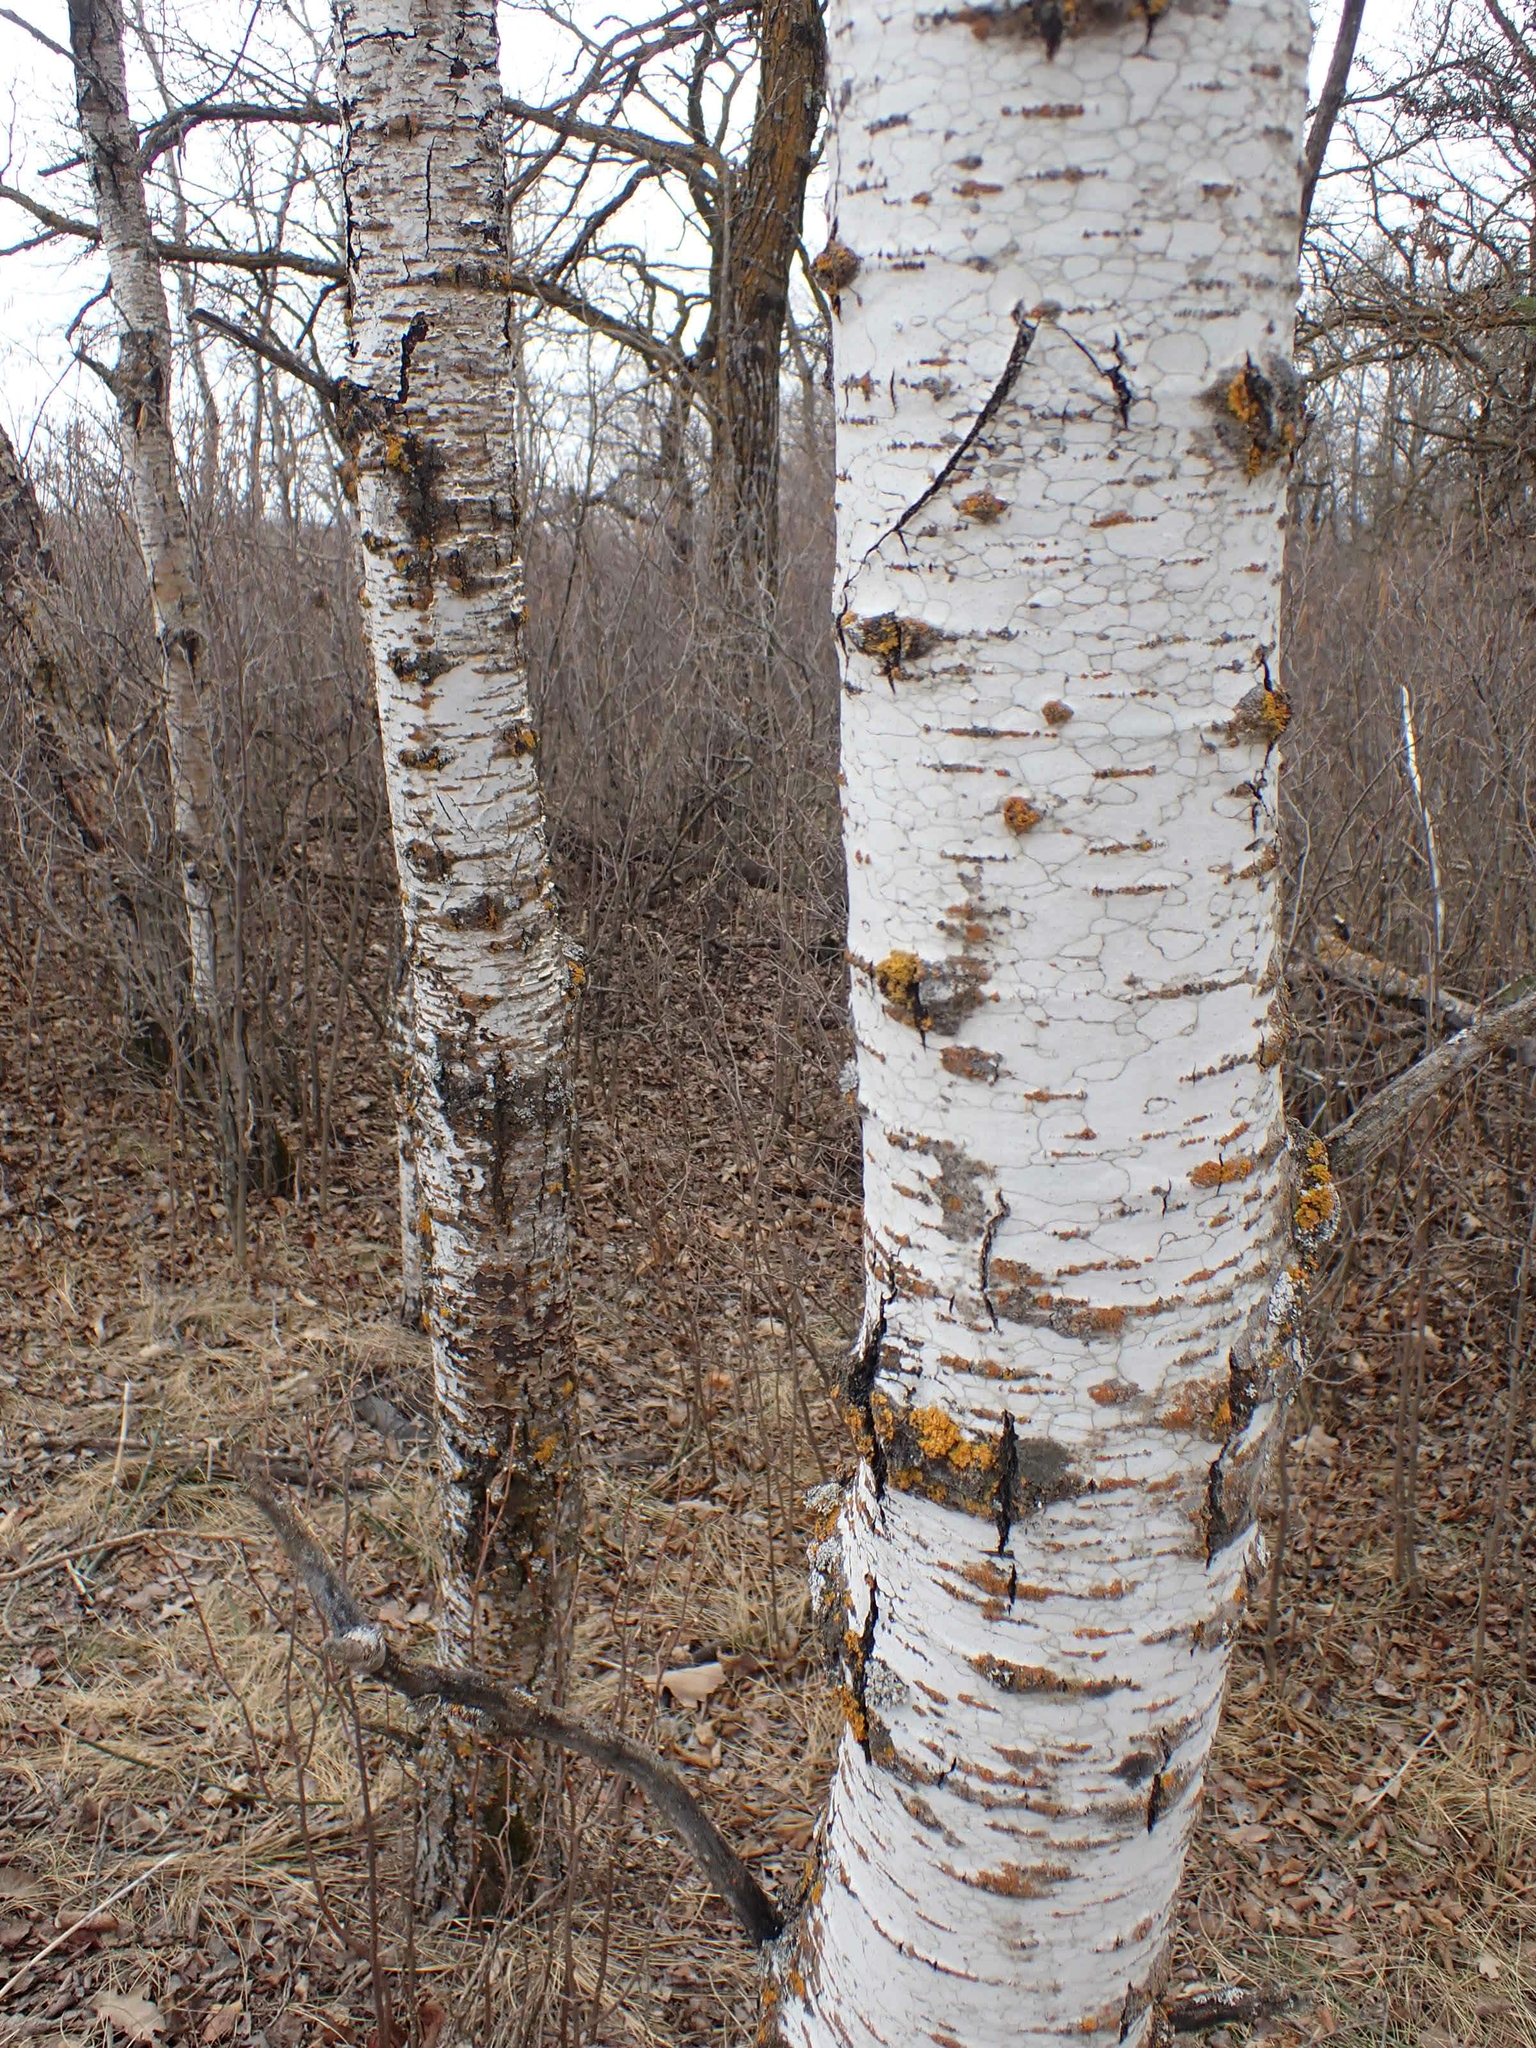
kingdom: Plantae
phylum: Tracheophyta
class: Magnoliopsida
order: Malpighiales
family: Salicaceae
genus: Populus
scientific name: Populus tremuloides
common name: Quaking aspen
